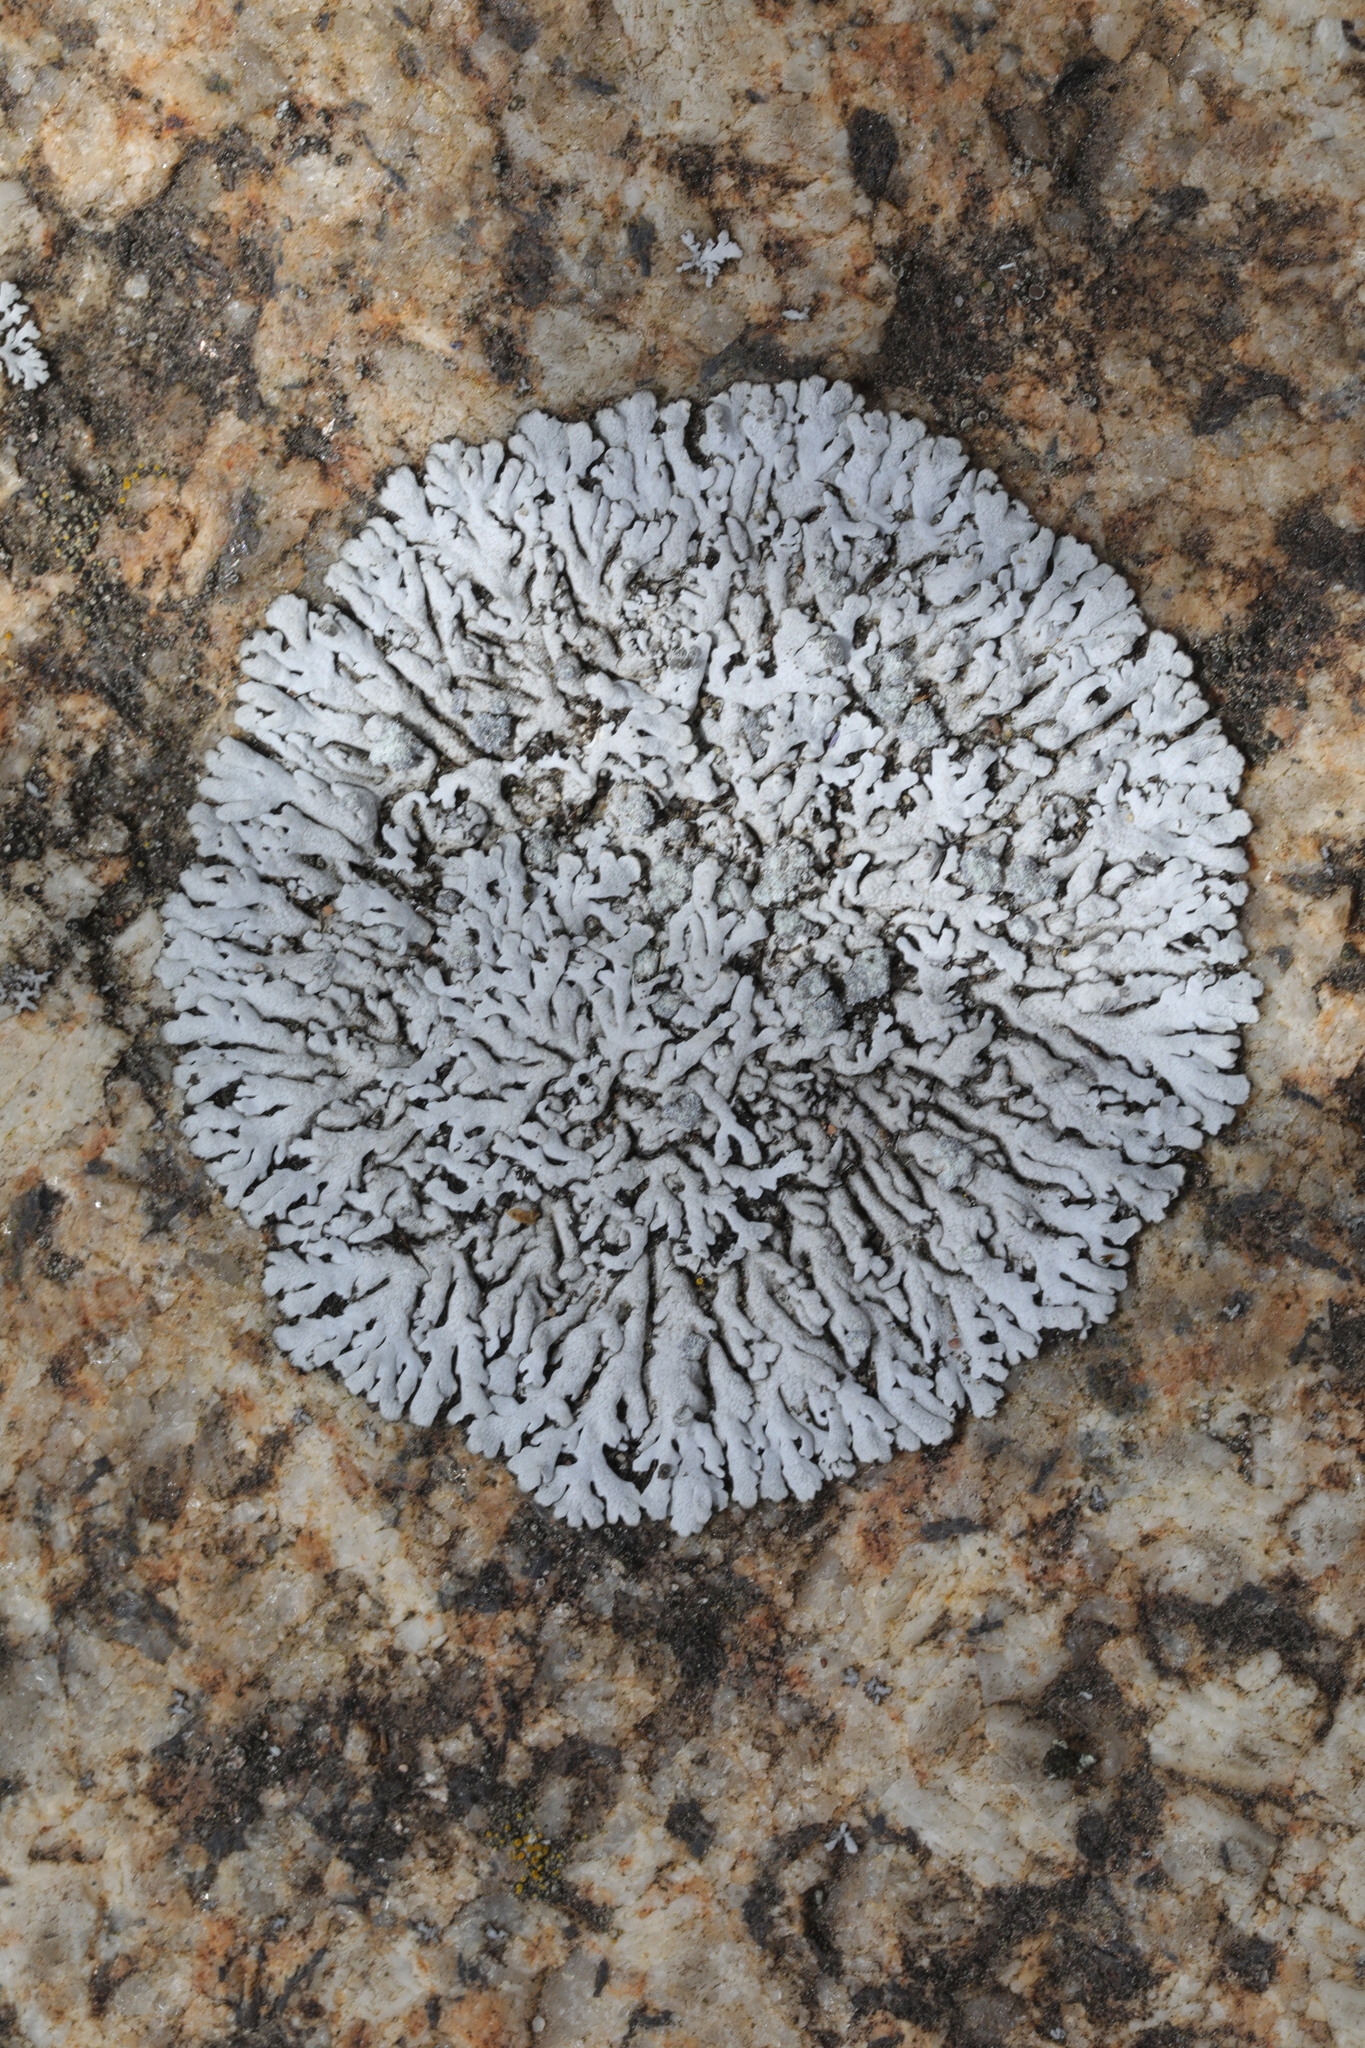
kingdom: Fungi
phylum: Ascomycota
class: Lecanoromycetes
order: Caliciales
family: Physciaceae
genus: Physcia
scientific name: Physcia caesia
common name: Blue-gray rosette lichen
